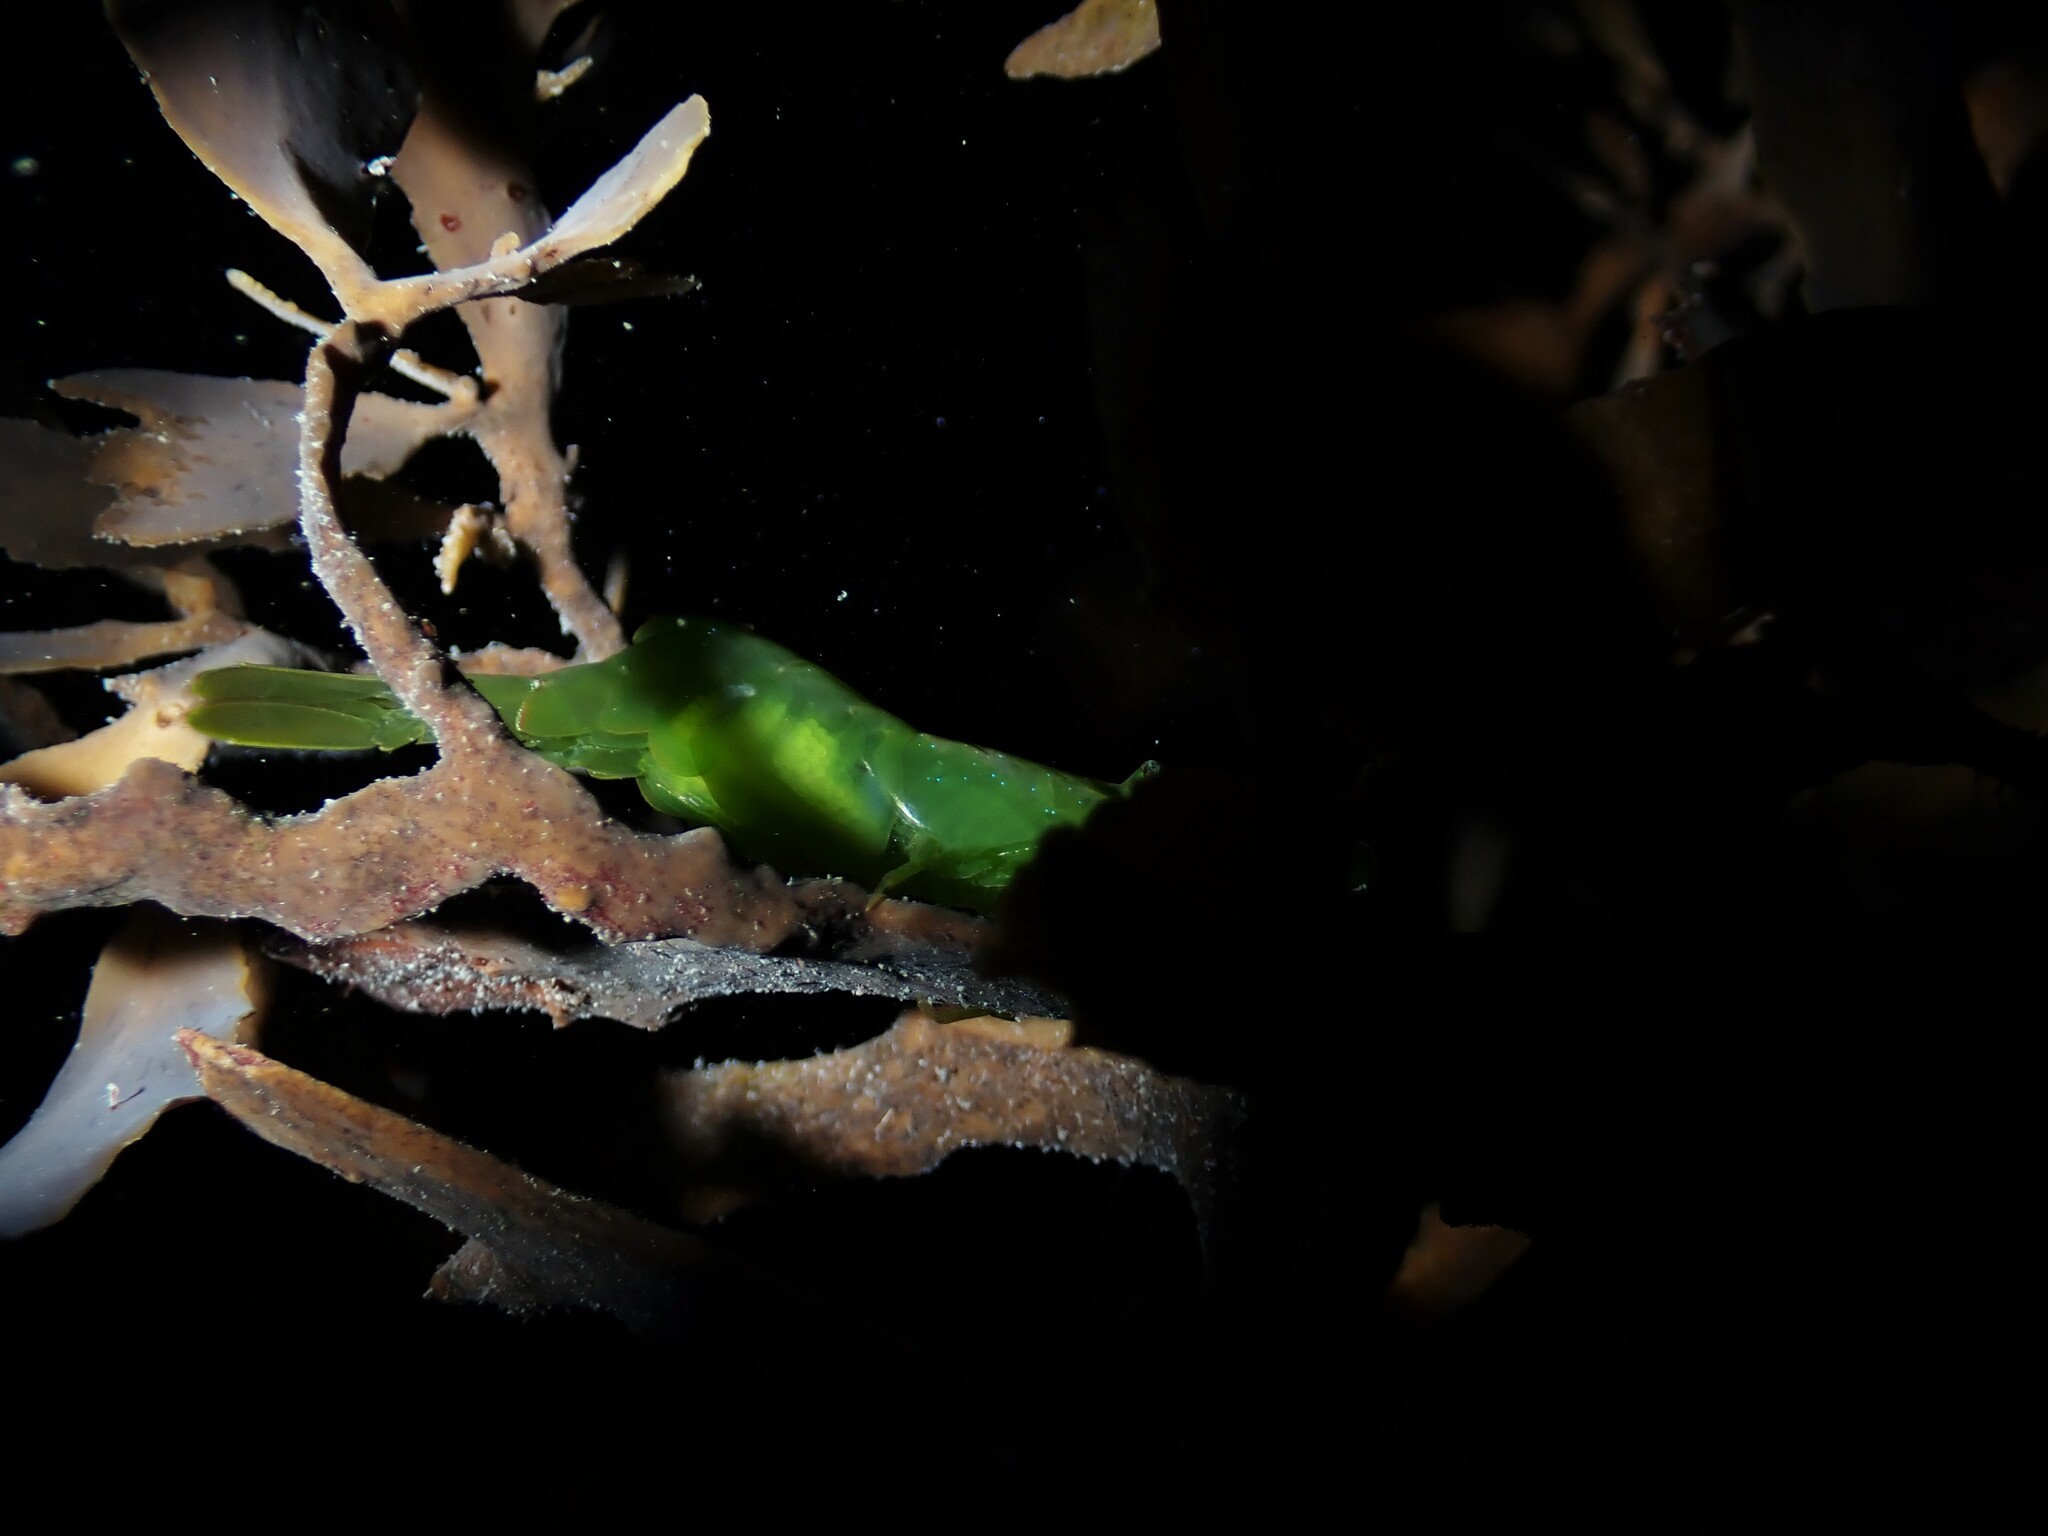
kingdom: Animalia
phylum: Arthropoda
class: Malacostraca
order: Decapoda
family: Hippolytidae
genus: Hippolyte
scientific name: Hippolyte multicolorata
